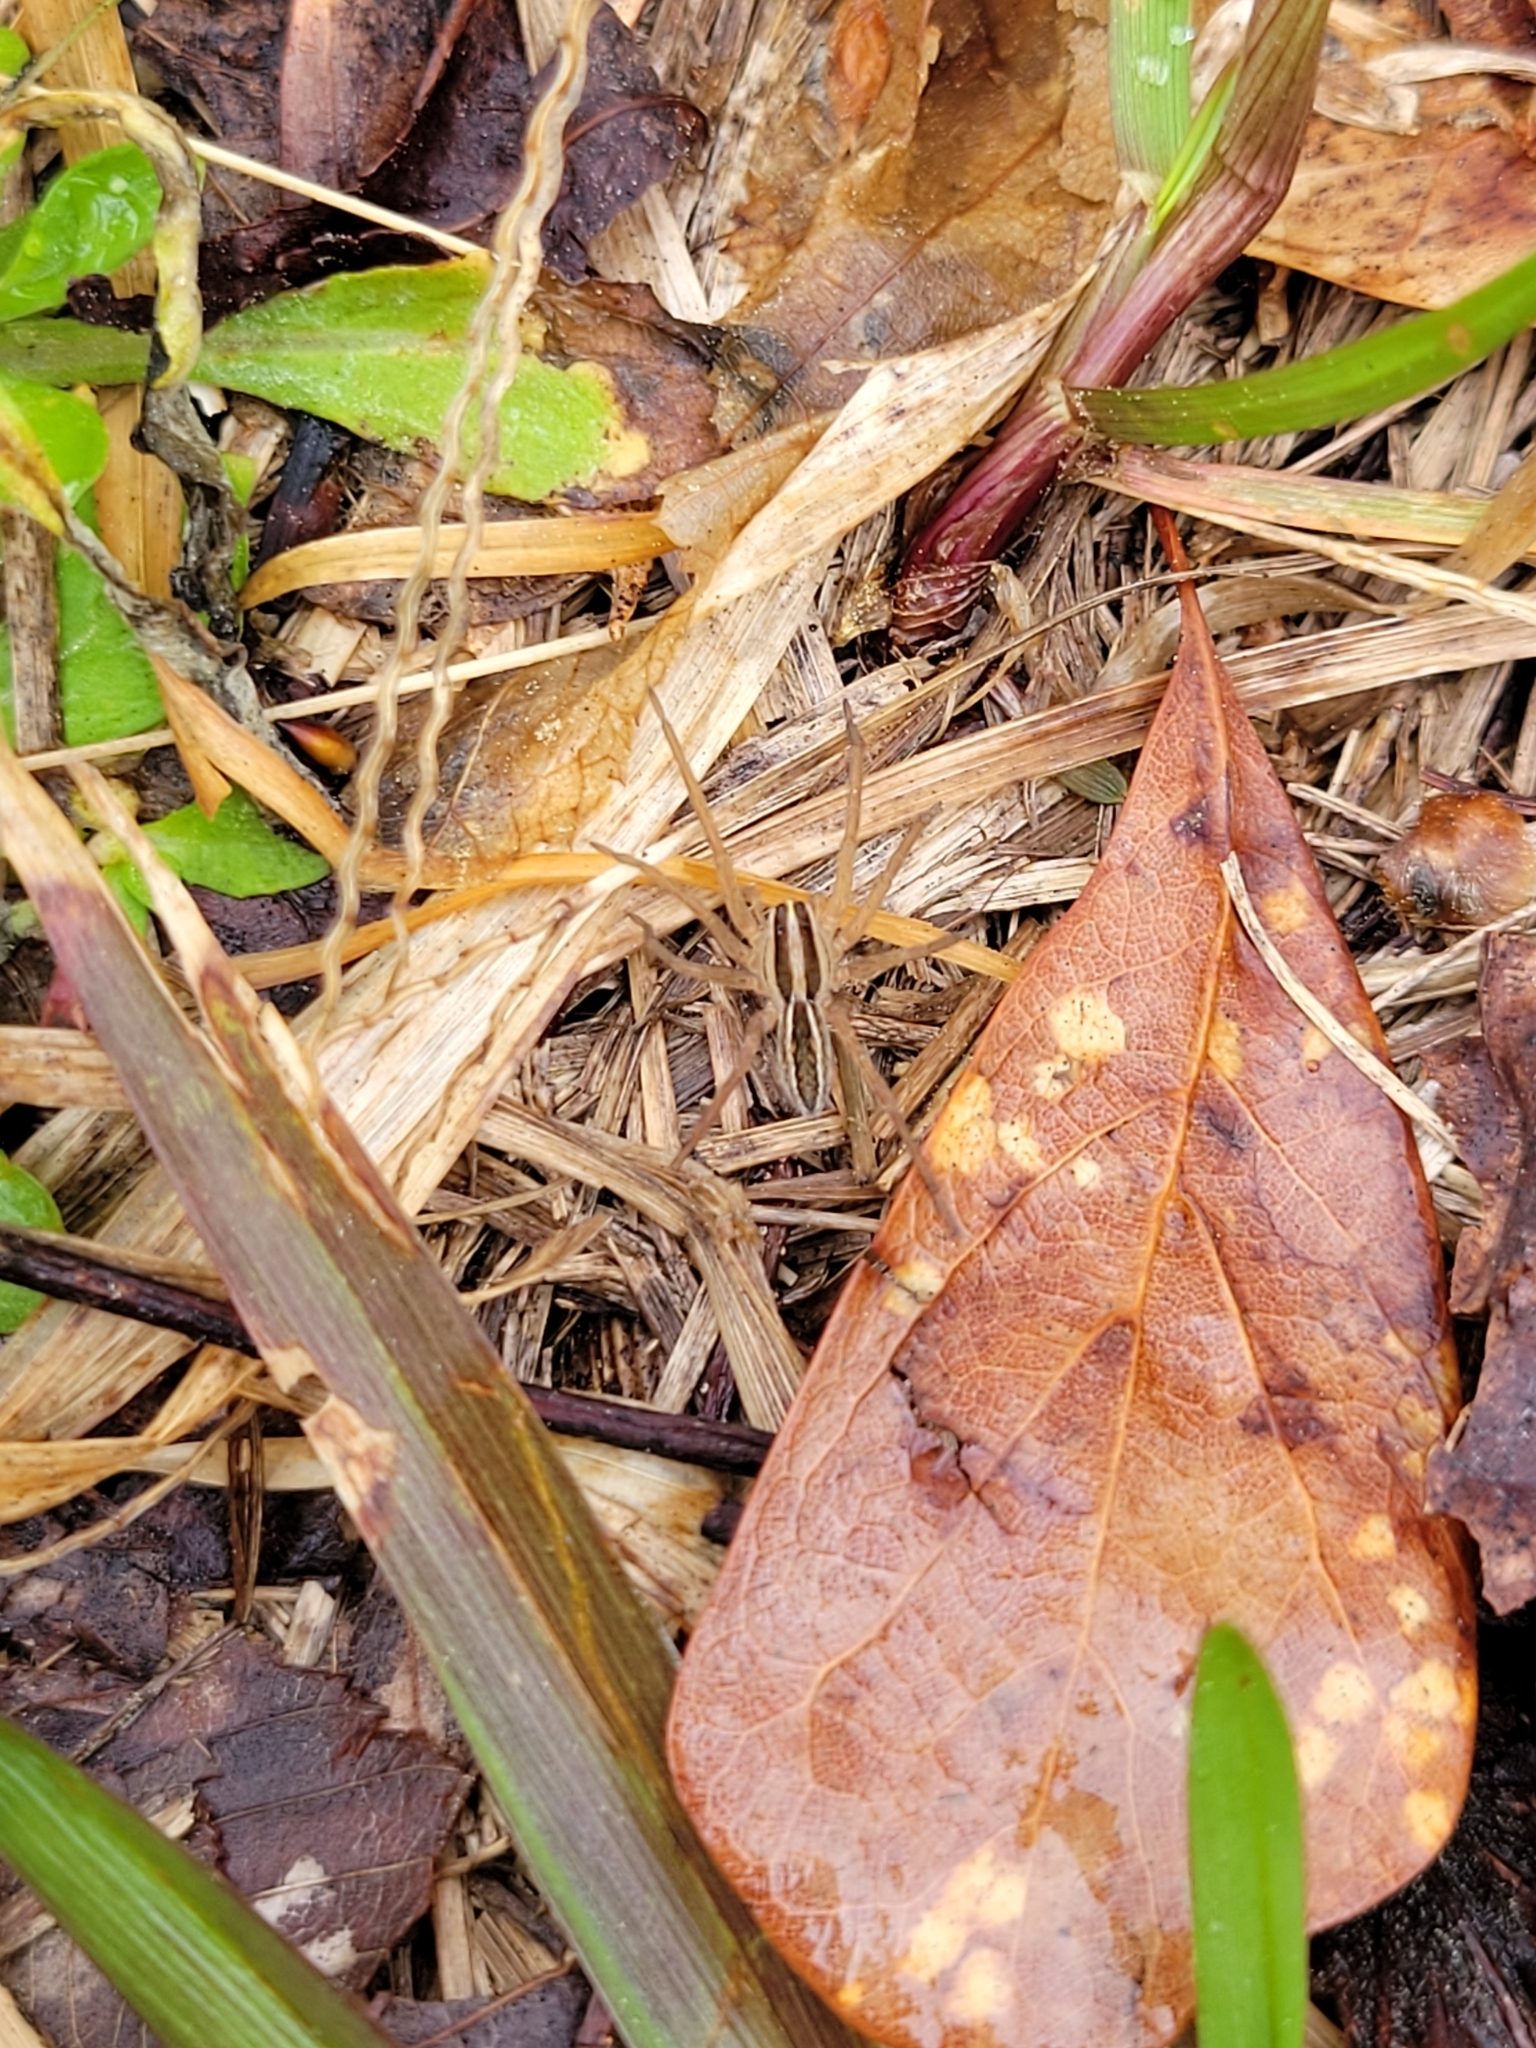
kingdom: Animalia
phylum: Arthropoda
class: Arachnida
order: Araneae
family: Lycosidae
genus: Rabidosa
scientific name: Rabidosa rabida
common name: Rabid wolf spider
